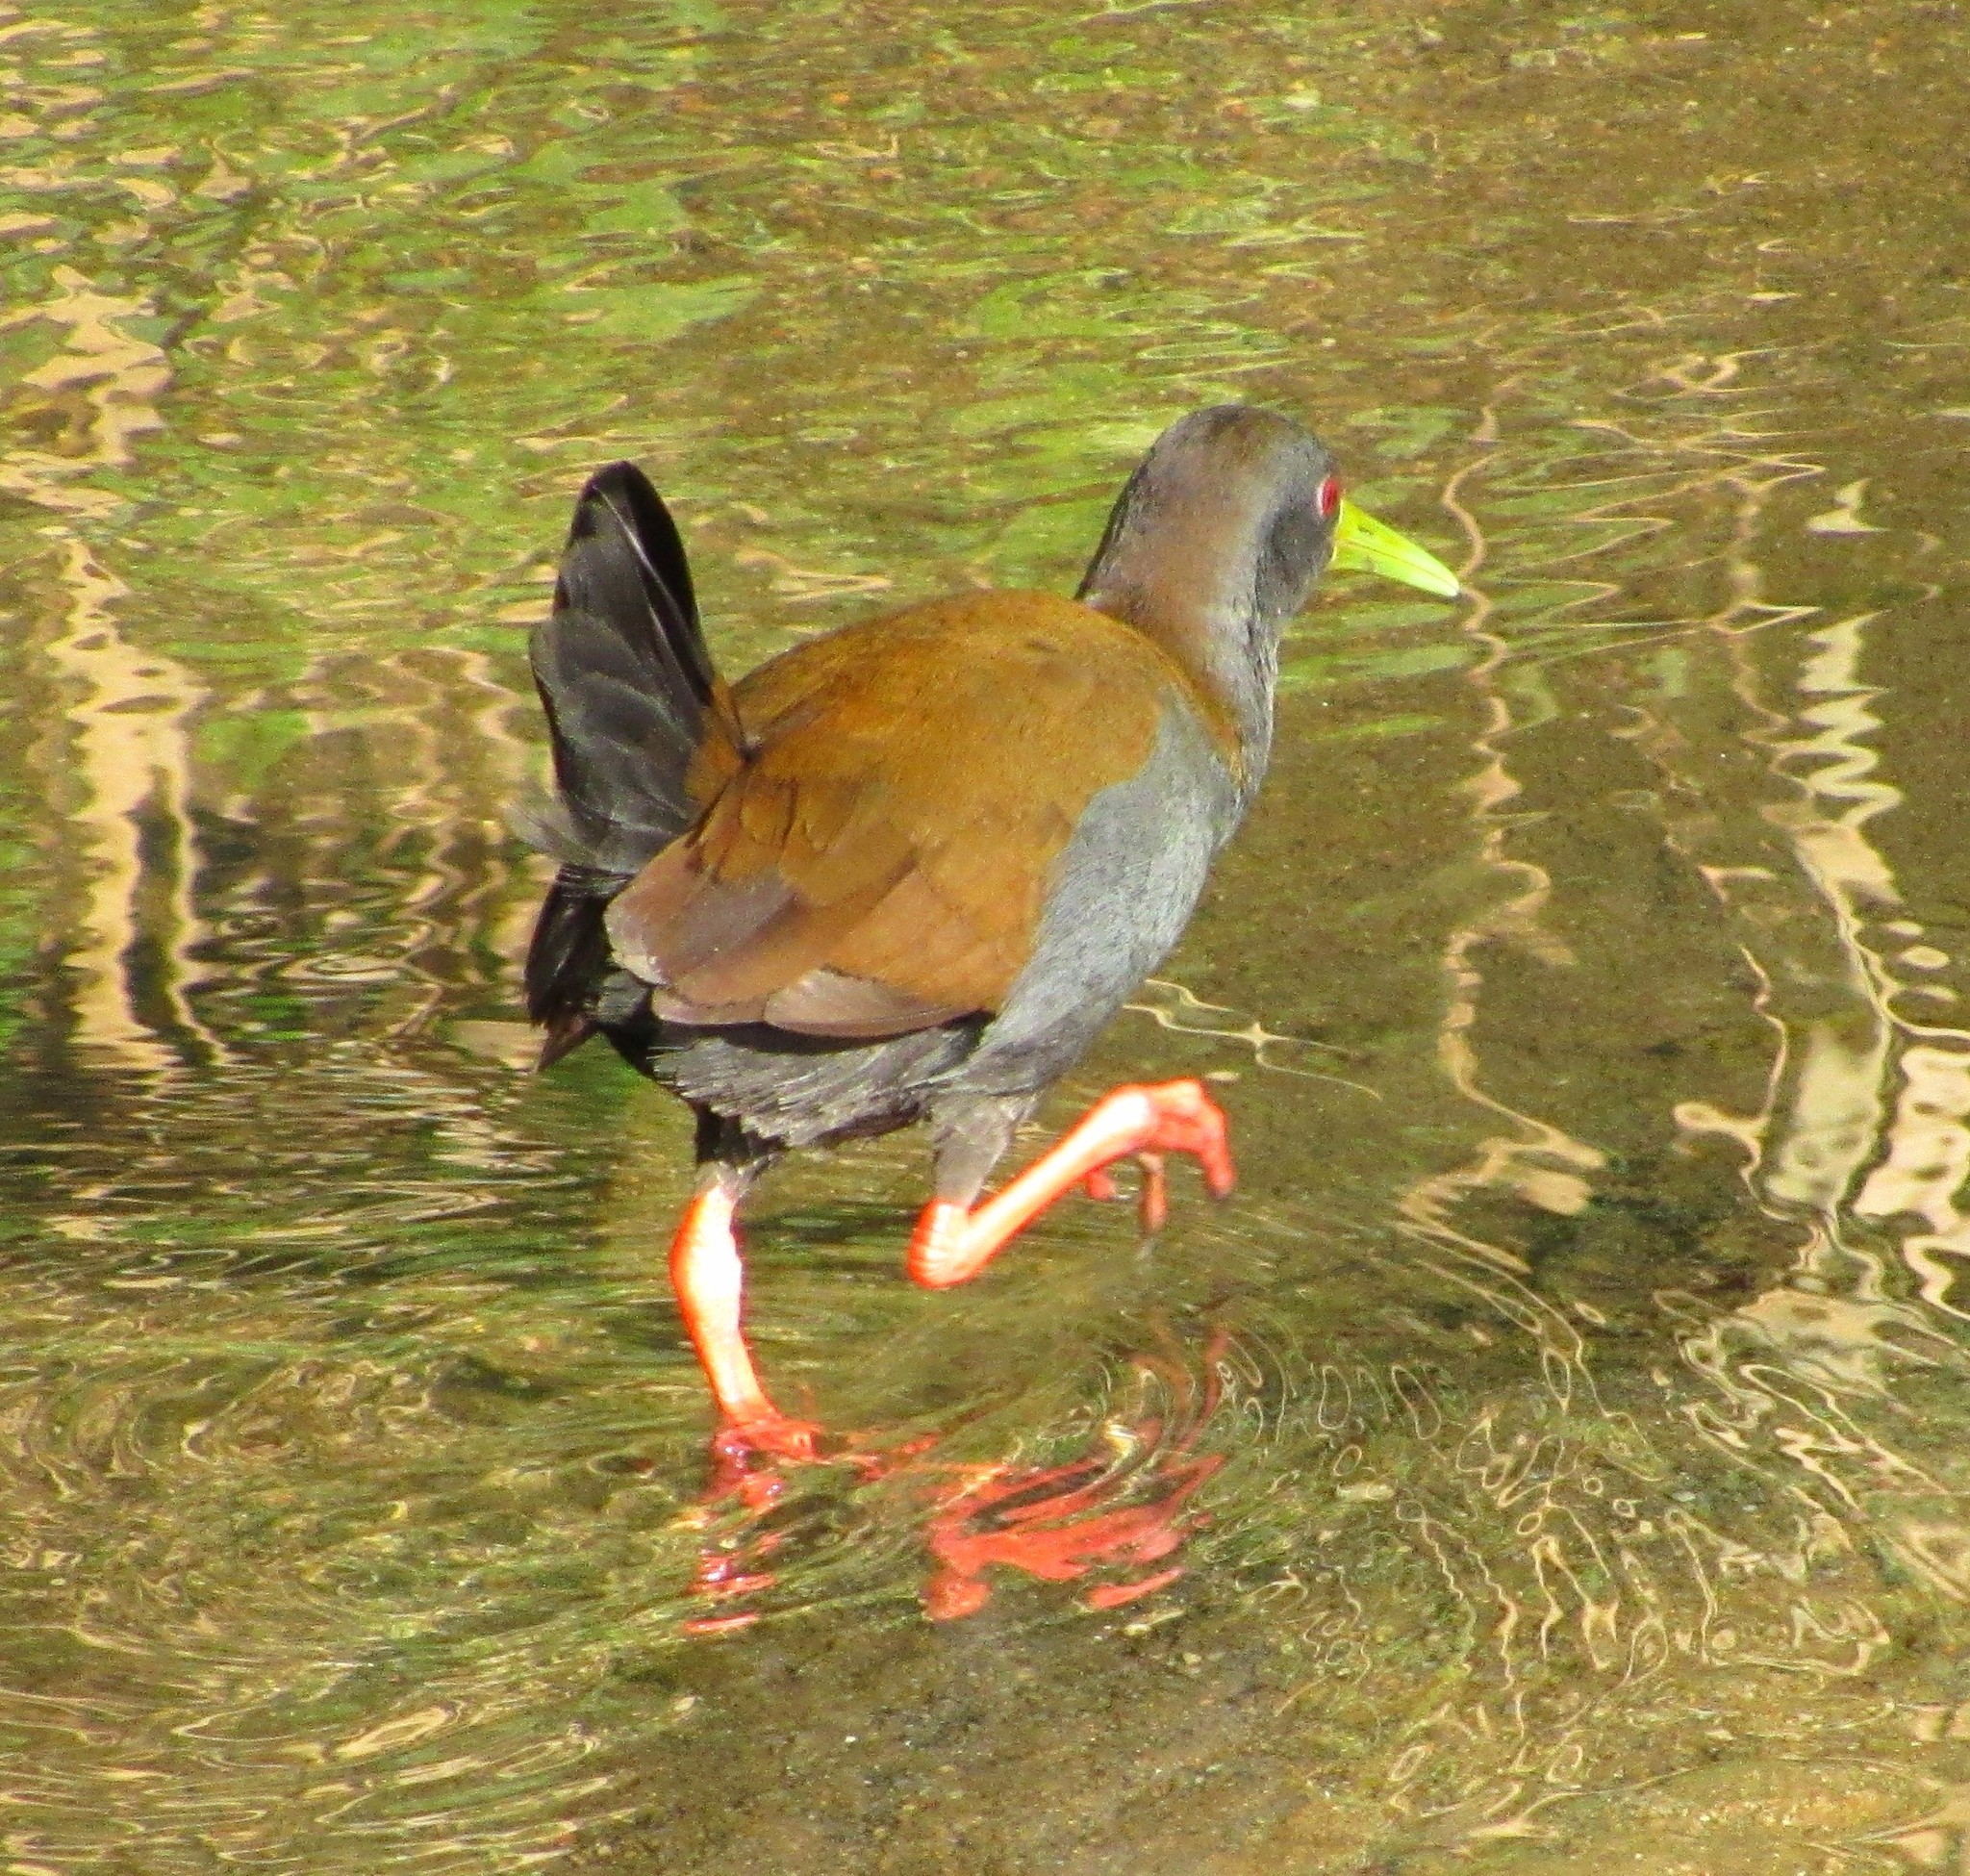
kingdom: Animalia
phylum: Chordata
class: Aves
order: Gruiformes
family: Rallidae
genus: Pardirallus
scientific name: Pardirallus nigricans
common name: Blackish rail
